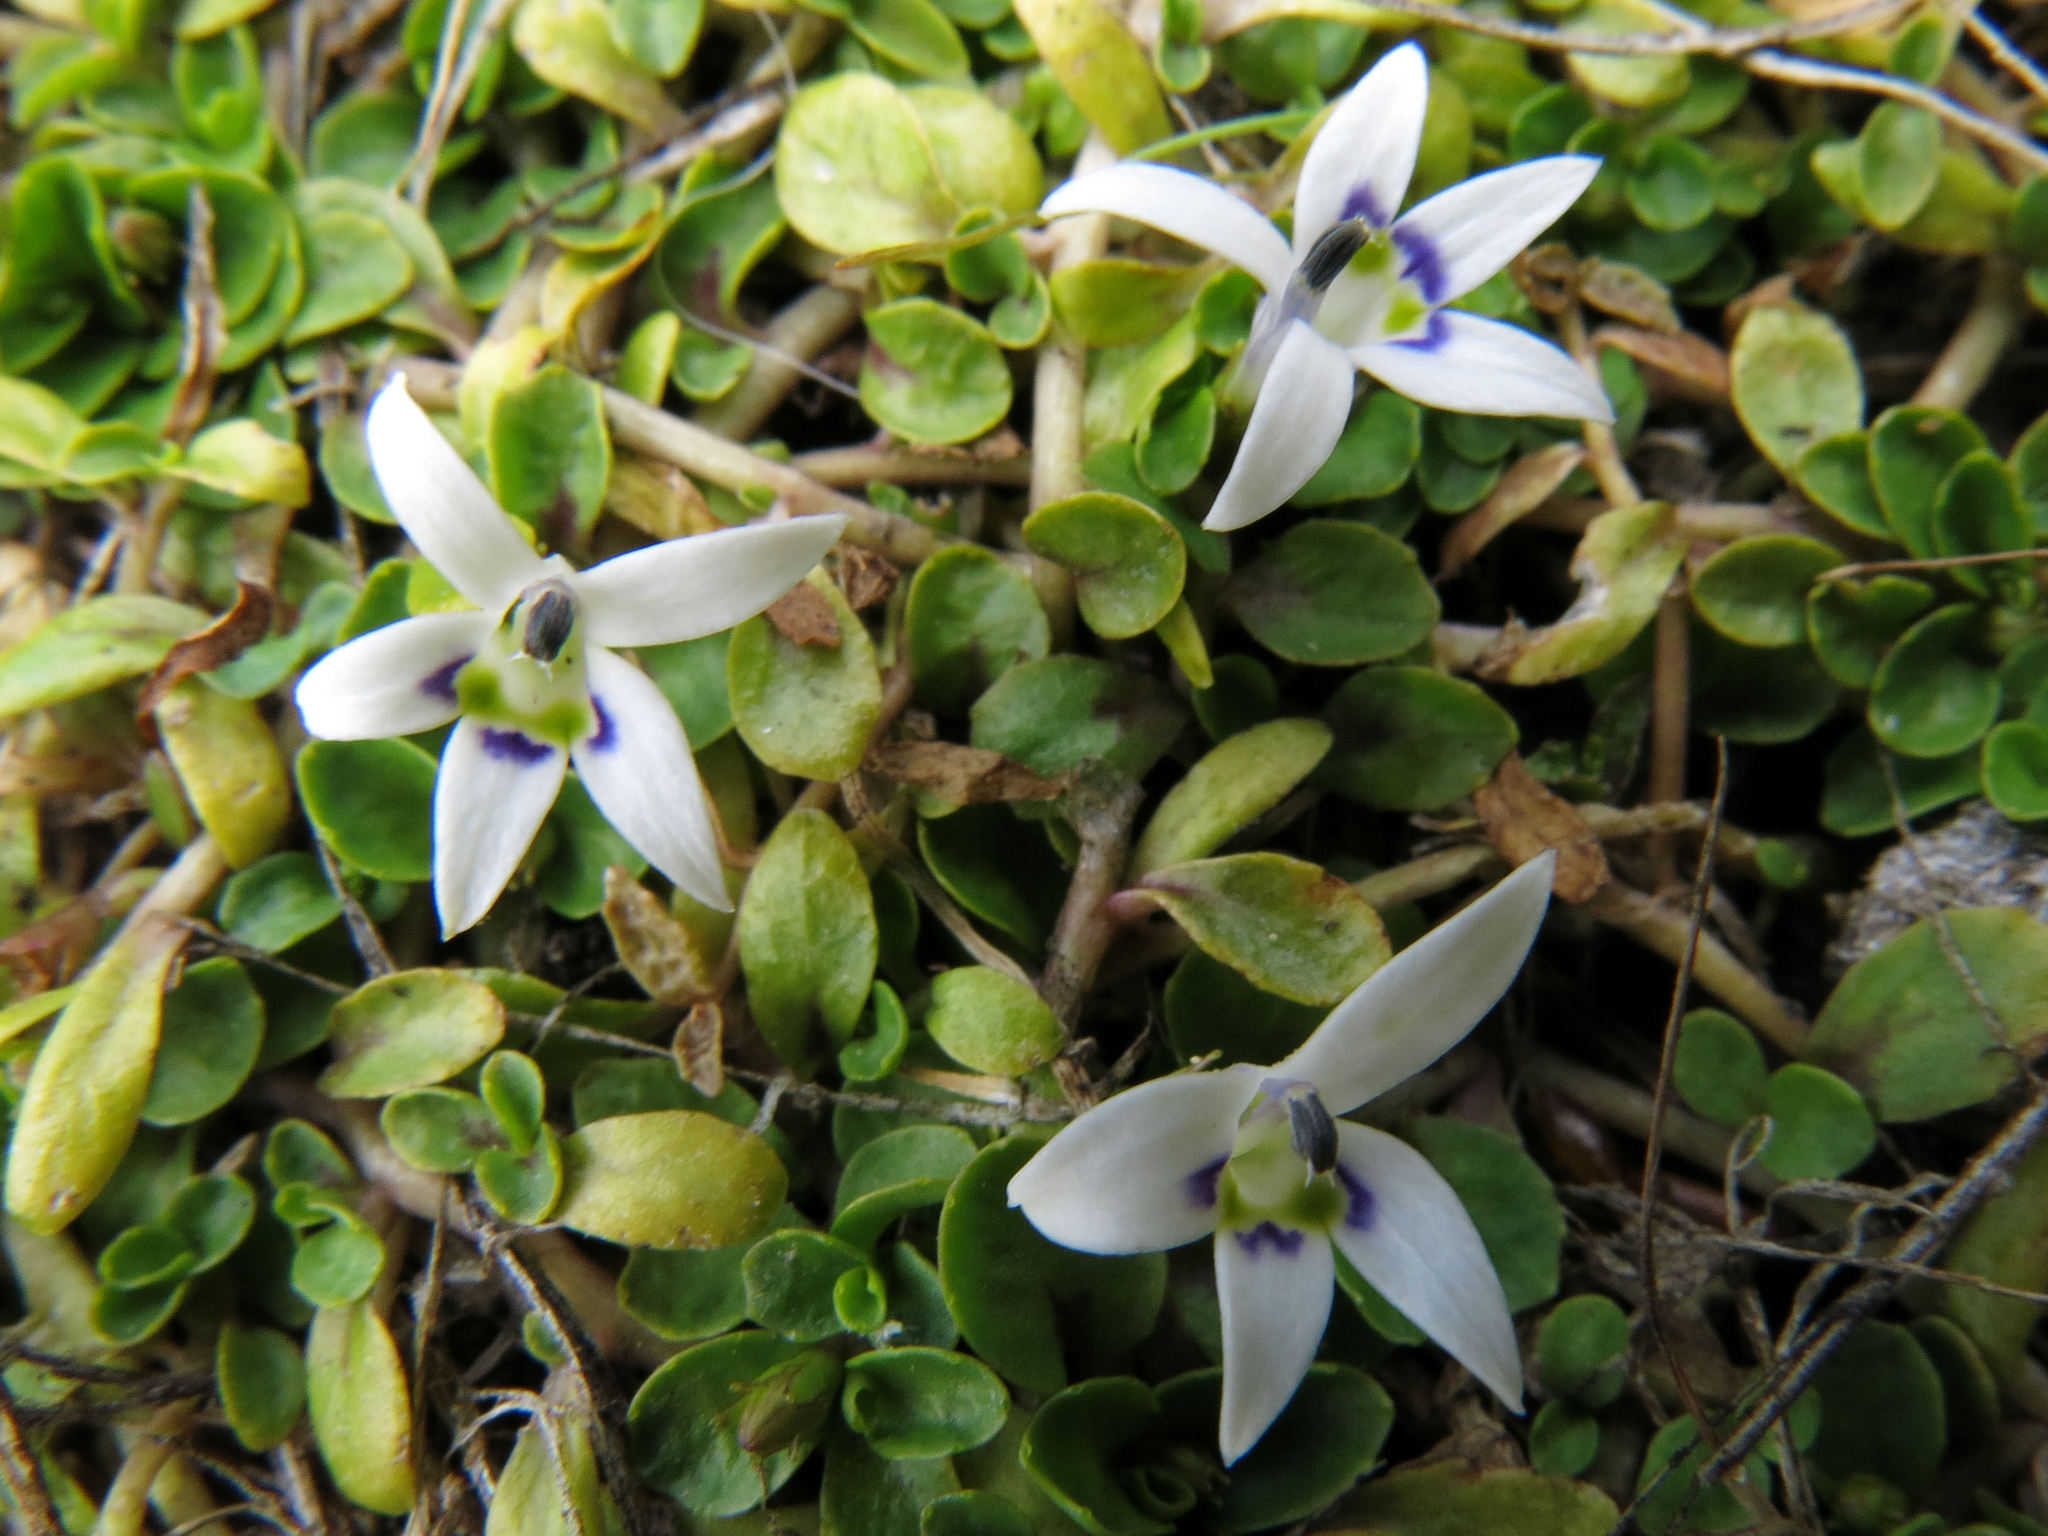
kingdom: Plantae
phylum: Tracheophyta
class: Magnoliopsida
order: Asterales
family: Campanulaceae
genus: Isotoma
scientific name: Isotoma rivalis
